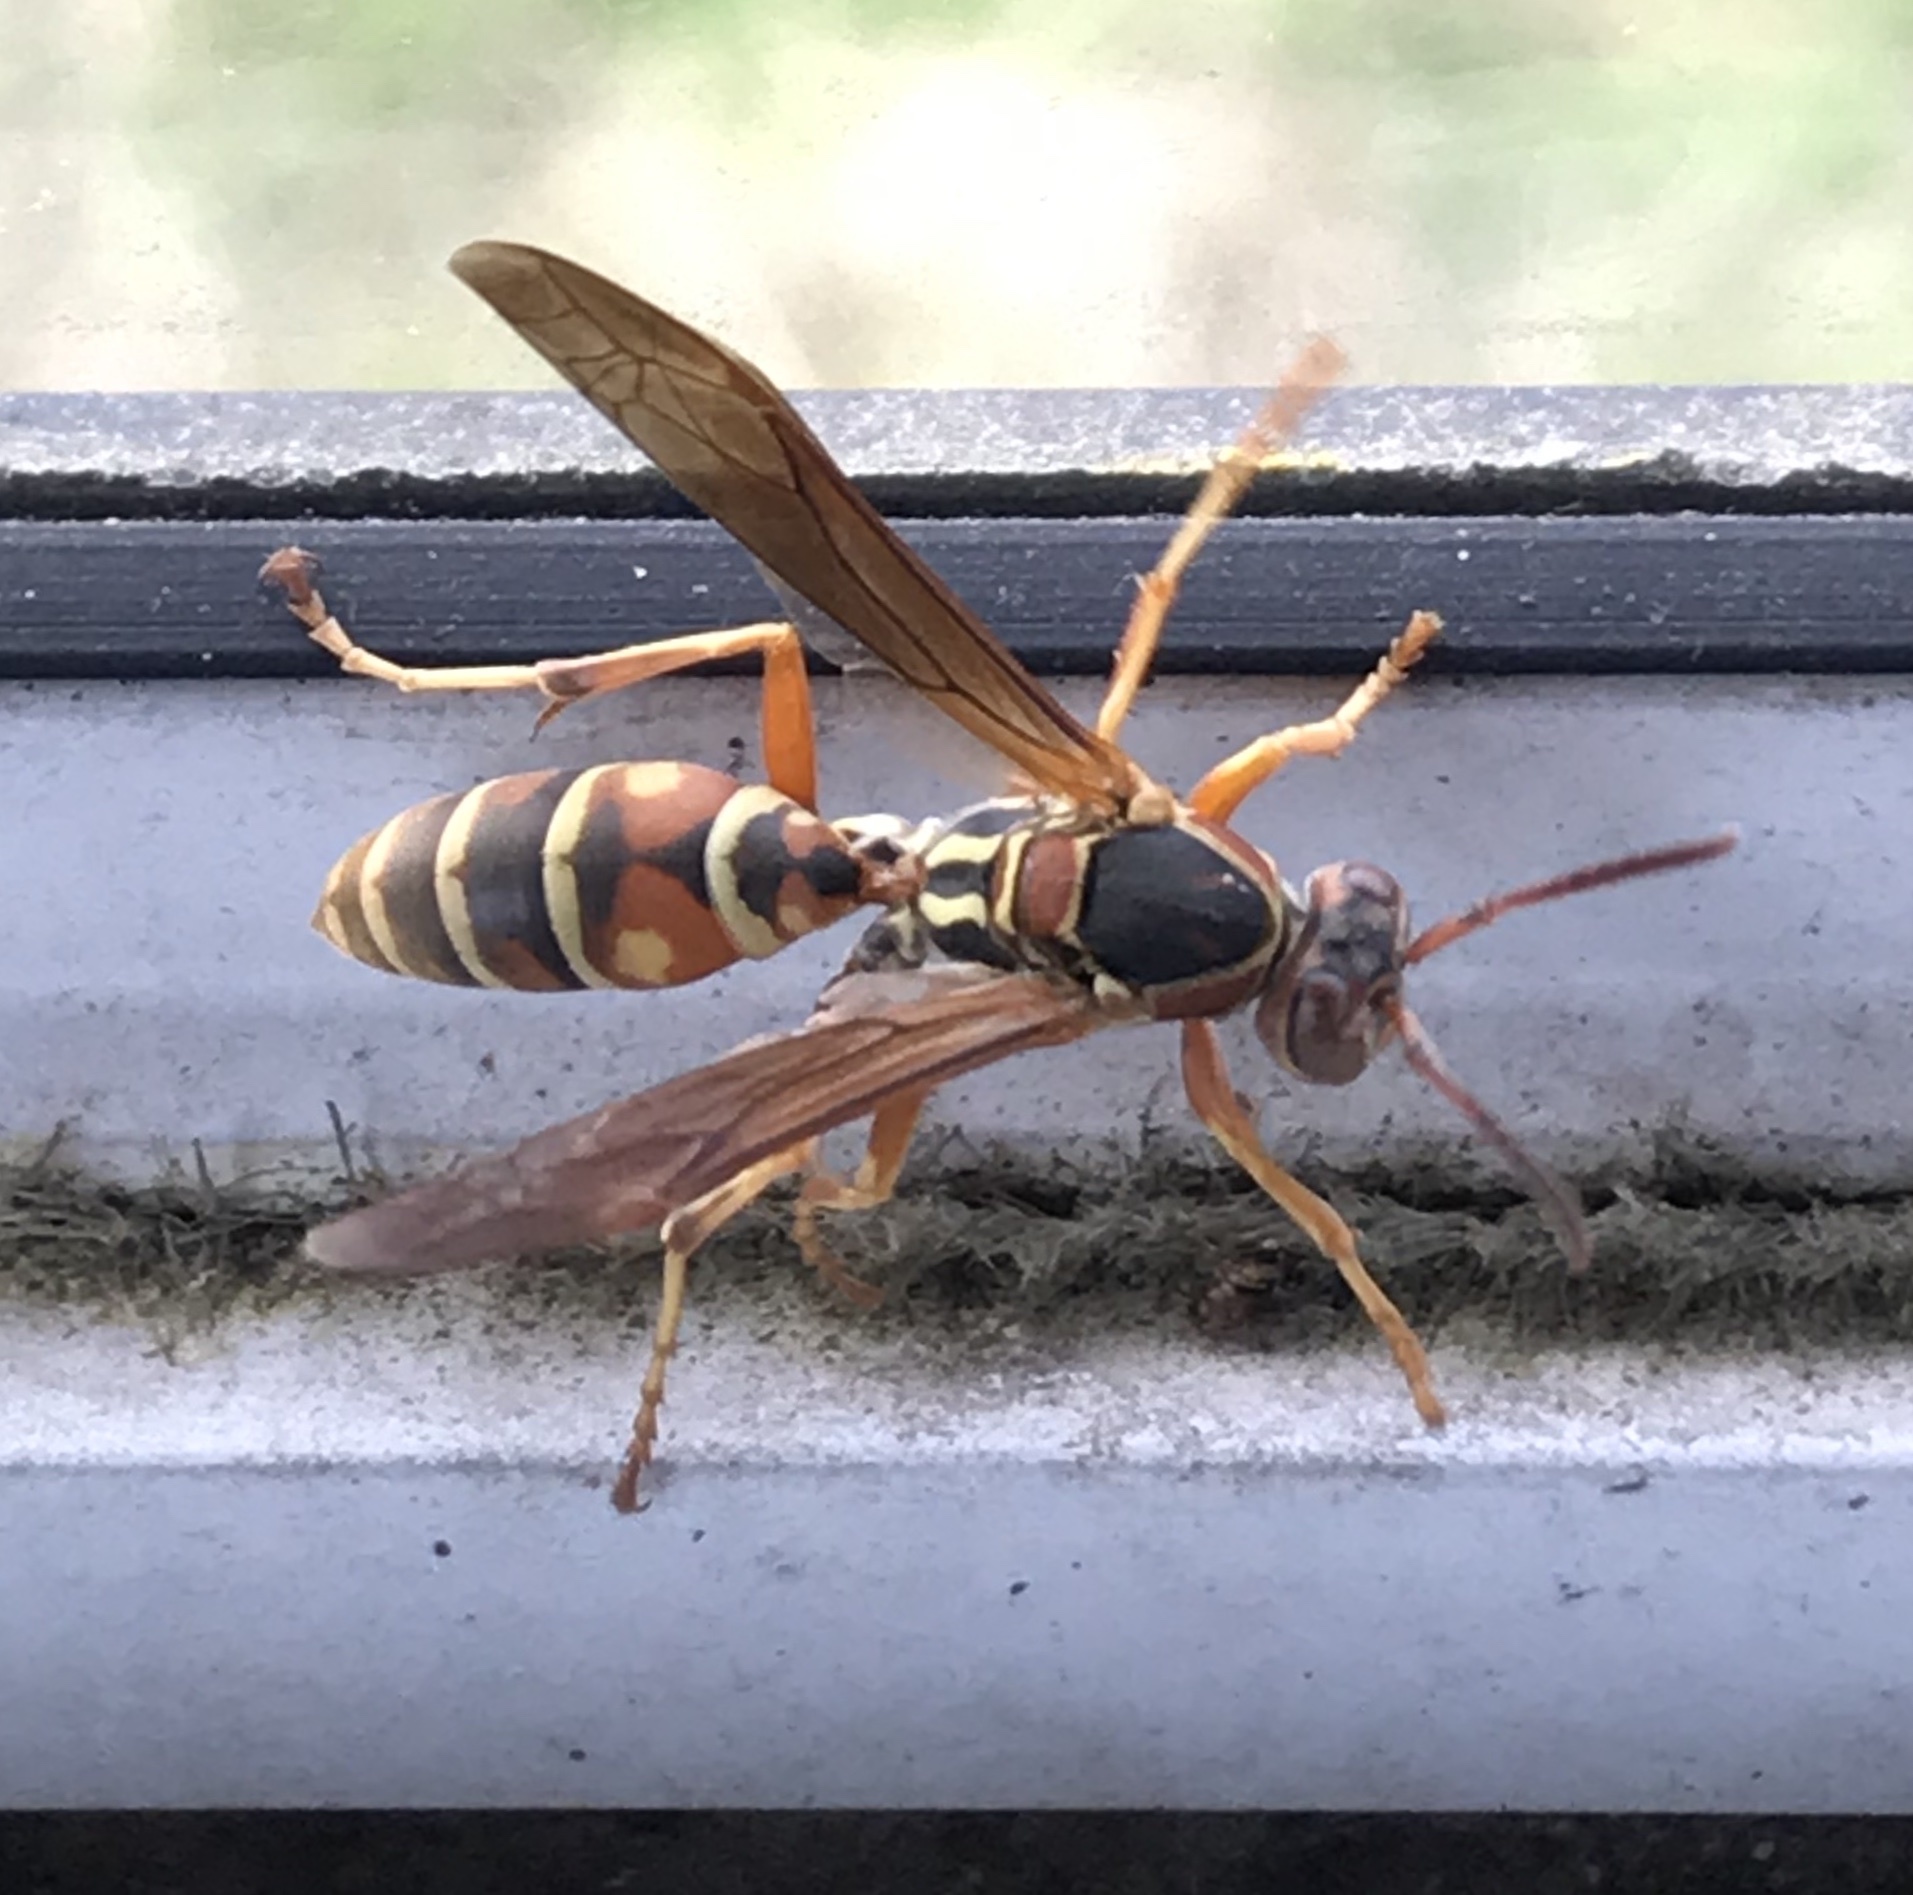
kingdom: Animalia
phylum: Arthropoda
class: Insecta
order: Hymenoptera
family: Eumenidae
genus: Polistes
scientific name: Polistes fuscatus
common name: Dark paper wasp
